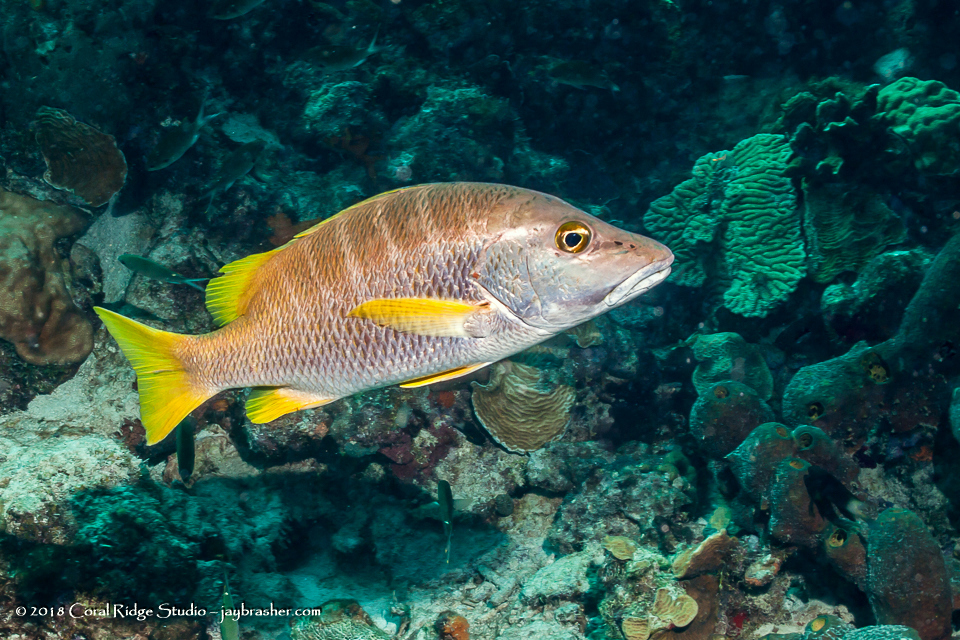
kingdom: Animalia
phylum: Chordata
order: Perciformes
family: Lutjanidae
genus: Lutjanus
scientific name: Lutjanus apodus
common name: Schoolmaster
